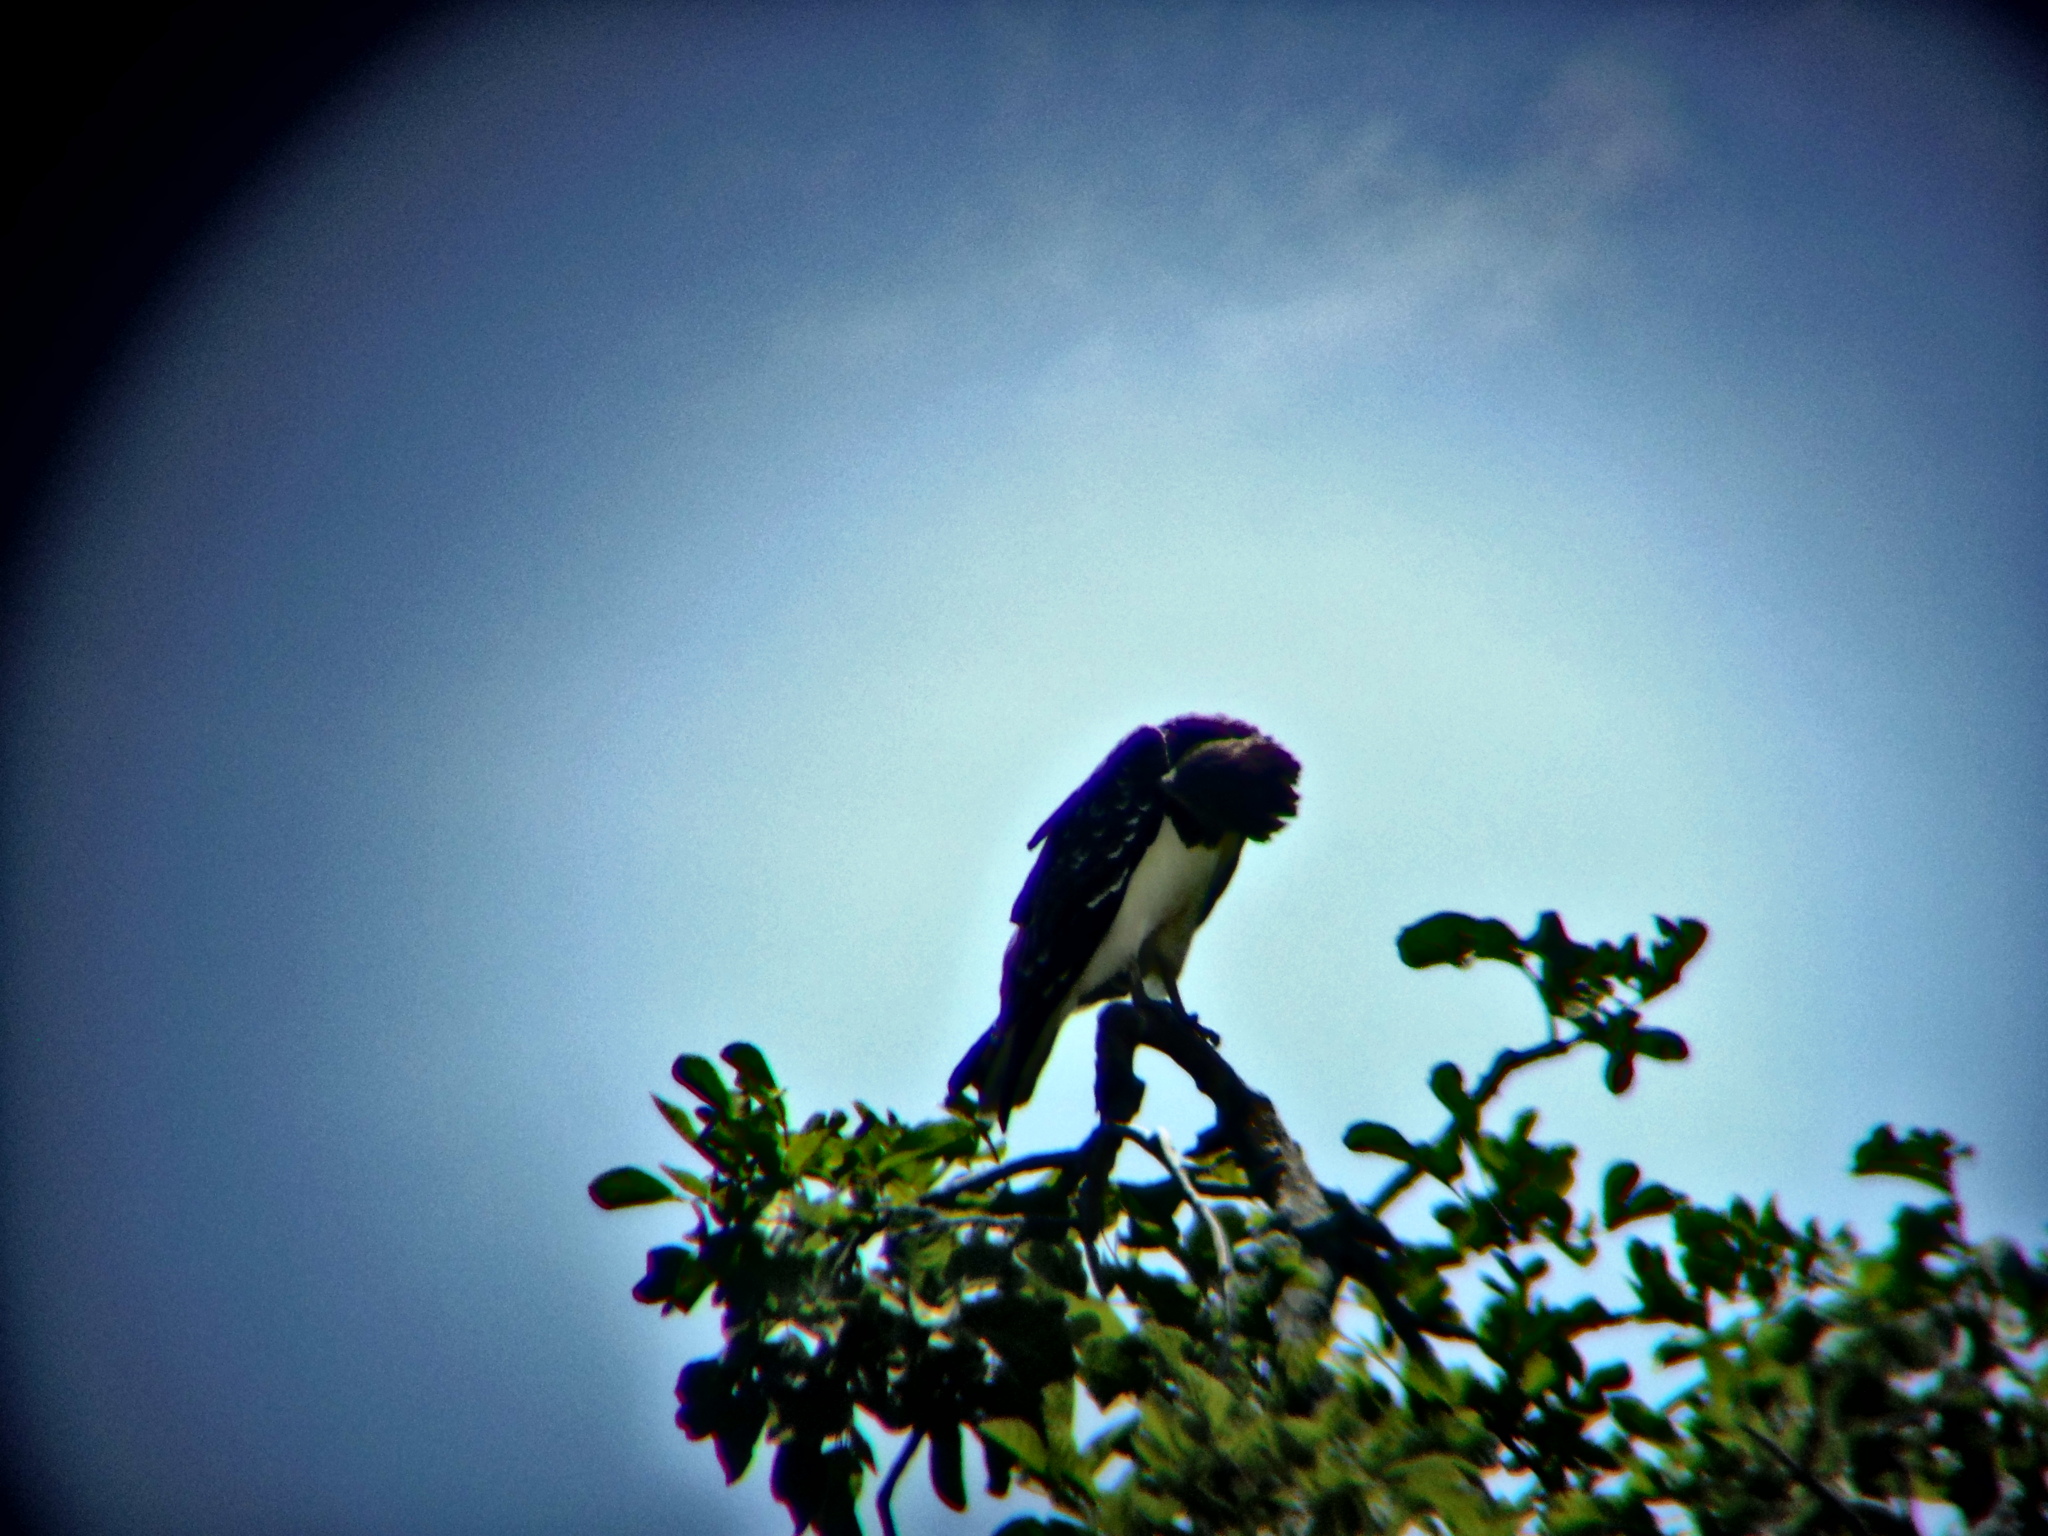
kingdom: Animalia
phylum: Chordata
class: Aves
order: Accipitriformes
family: Accipitridae
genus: Circaetus
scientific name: Circaetus pectoralis
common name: Black-chested snake eagle
